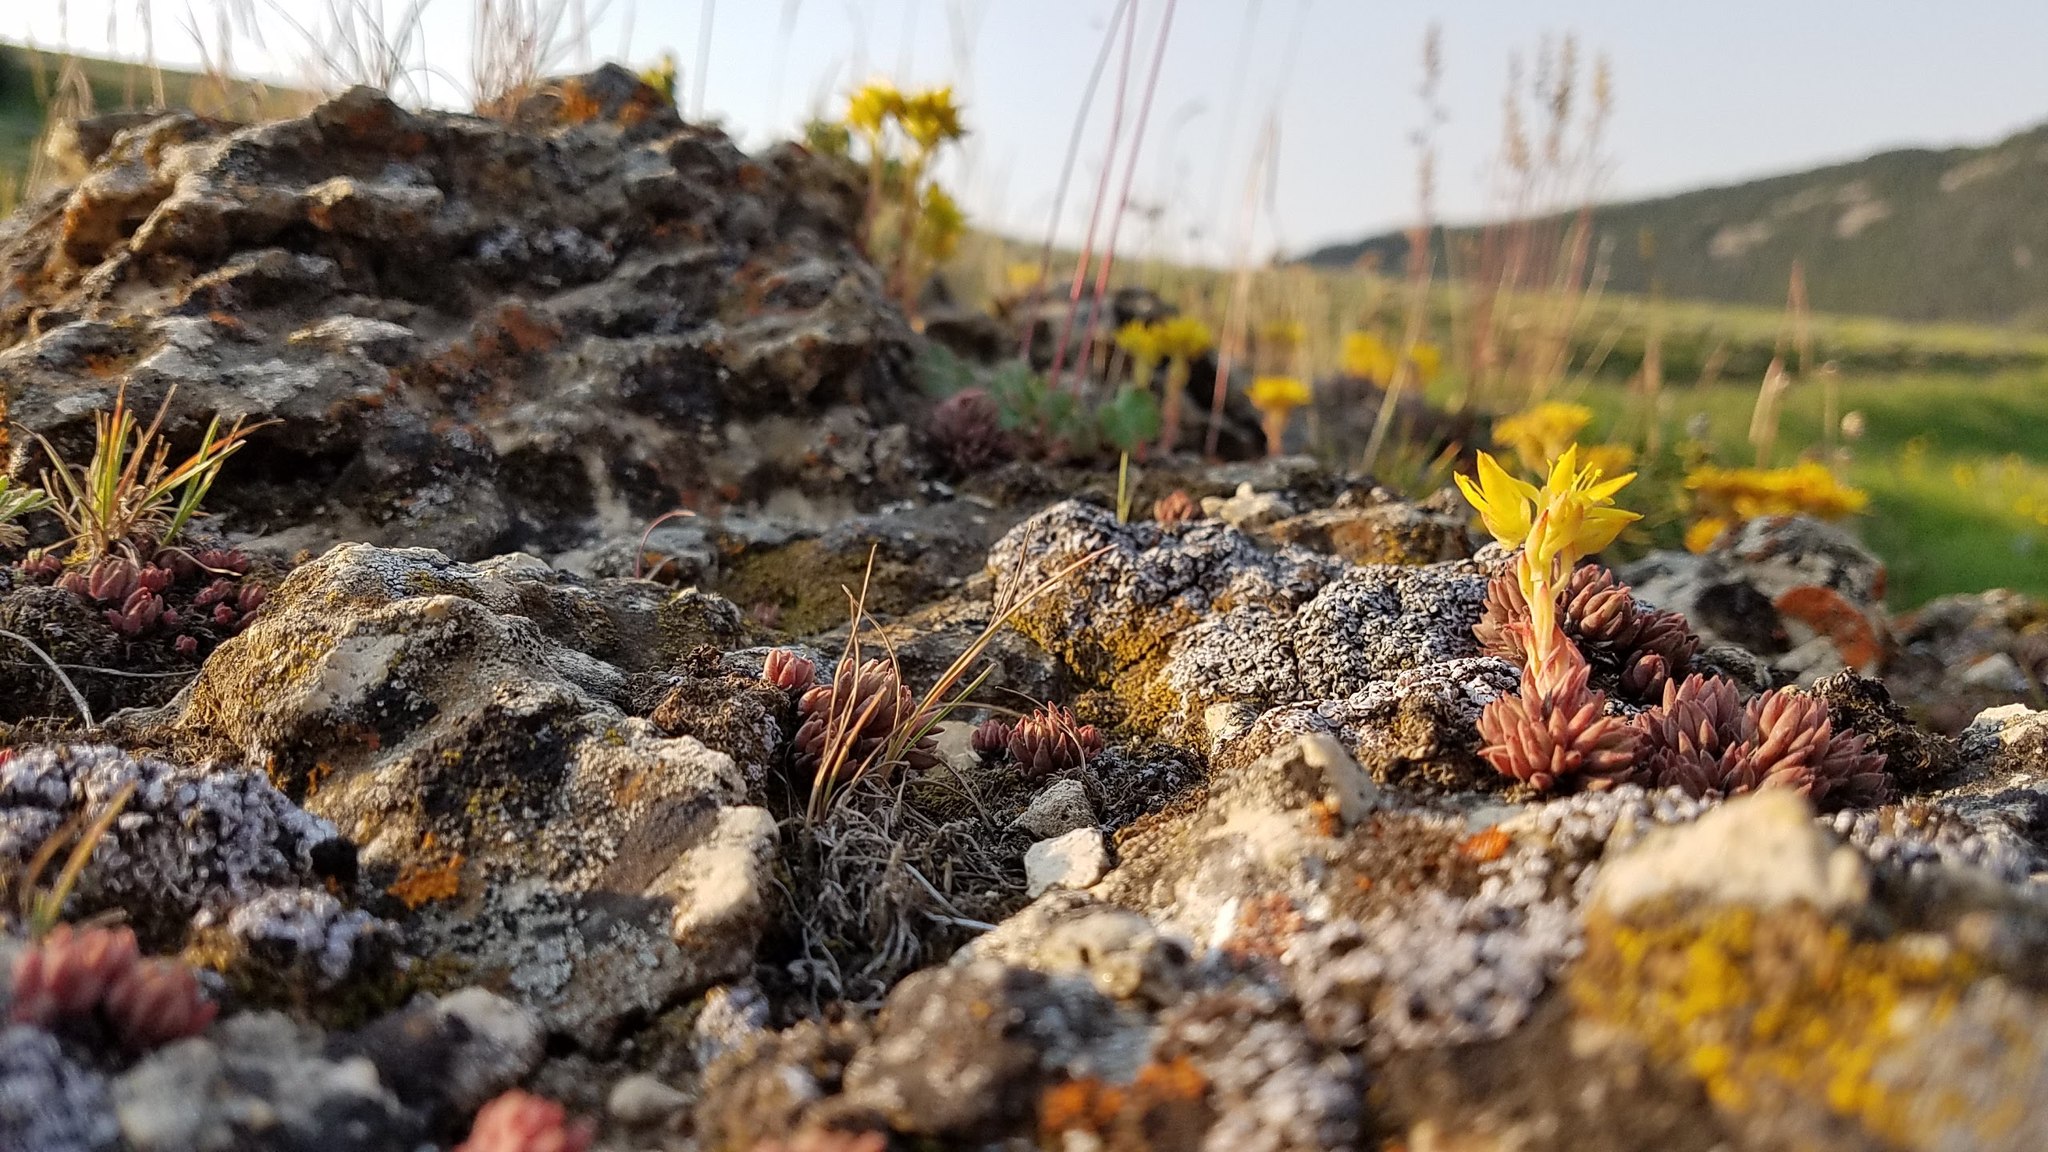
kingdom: Plantae
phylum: Tracheophyta
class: Magnoliopsida
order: Saxifragales
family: Crassulaceae
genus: Sedum
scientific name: Sedum lanceolatum
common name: Common stonecrop
